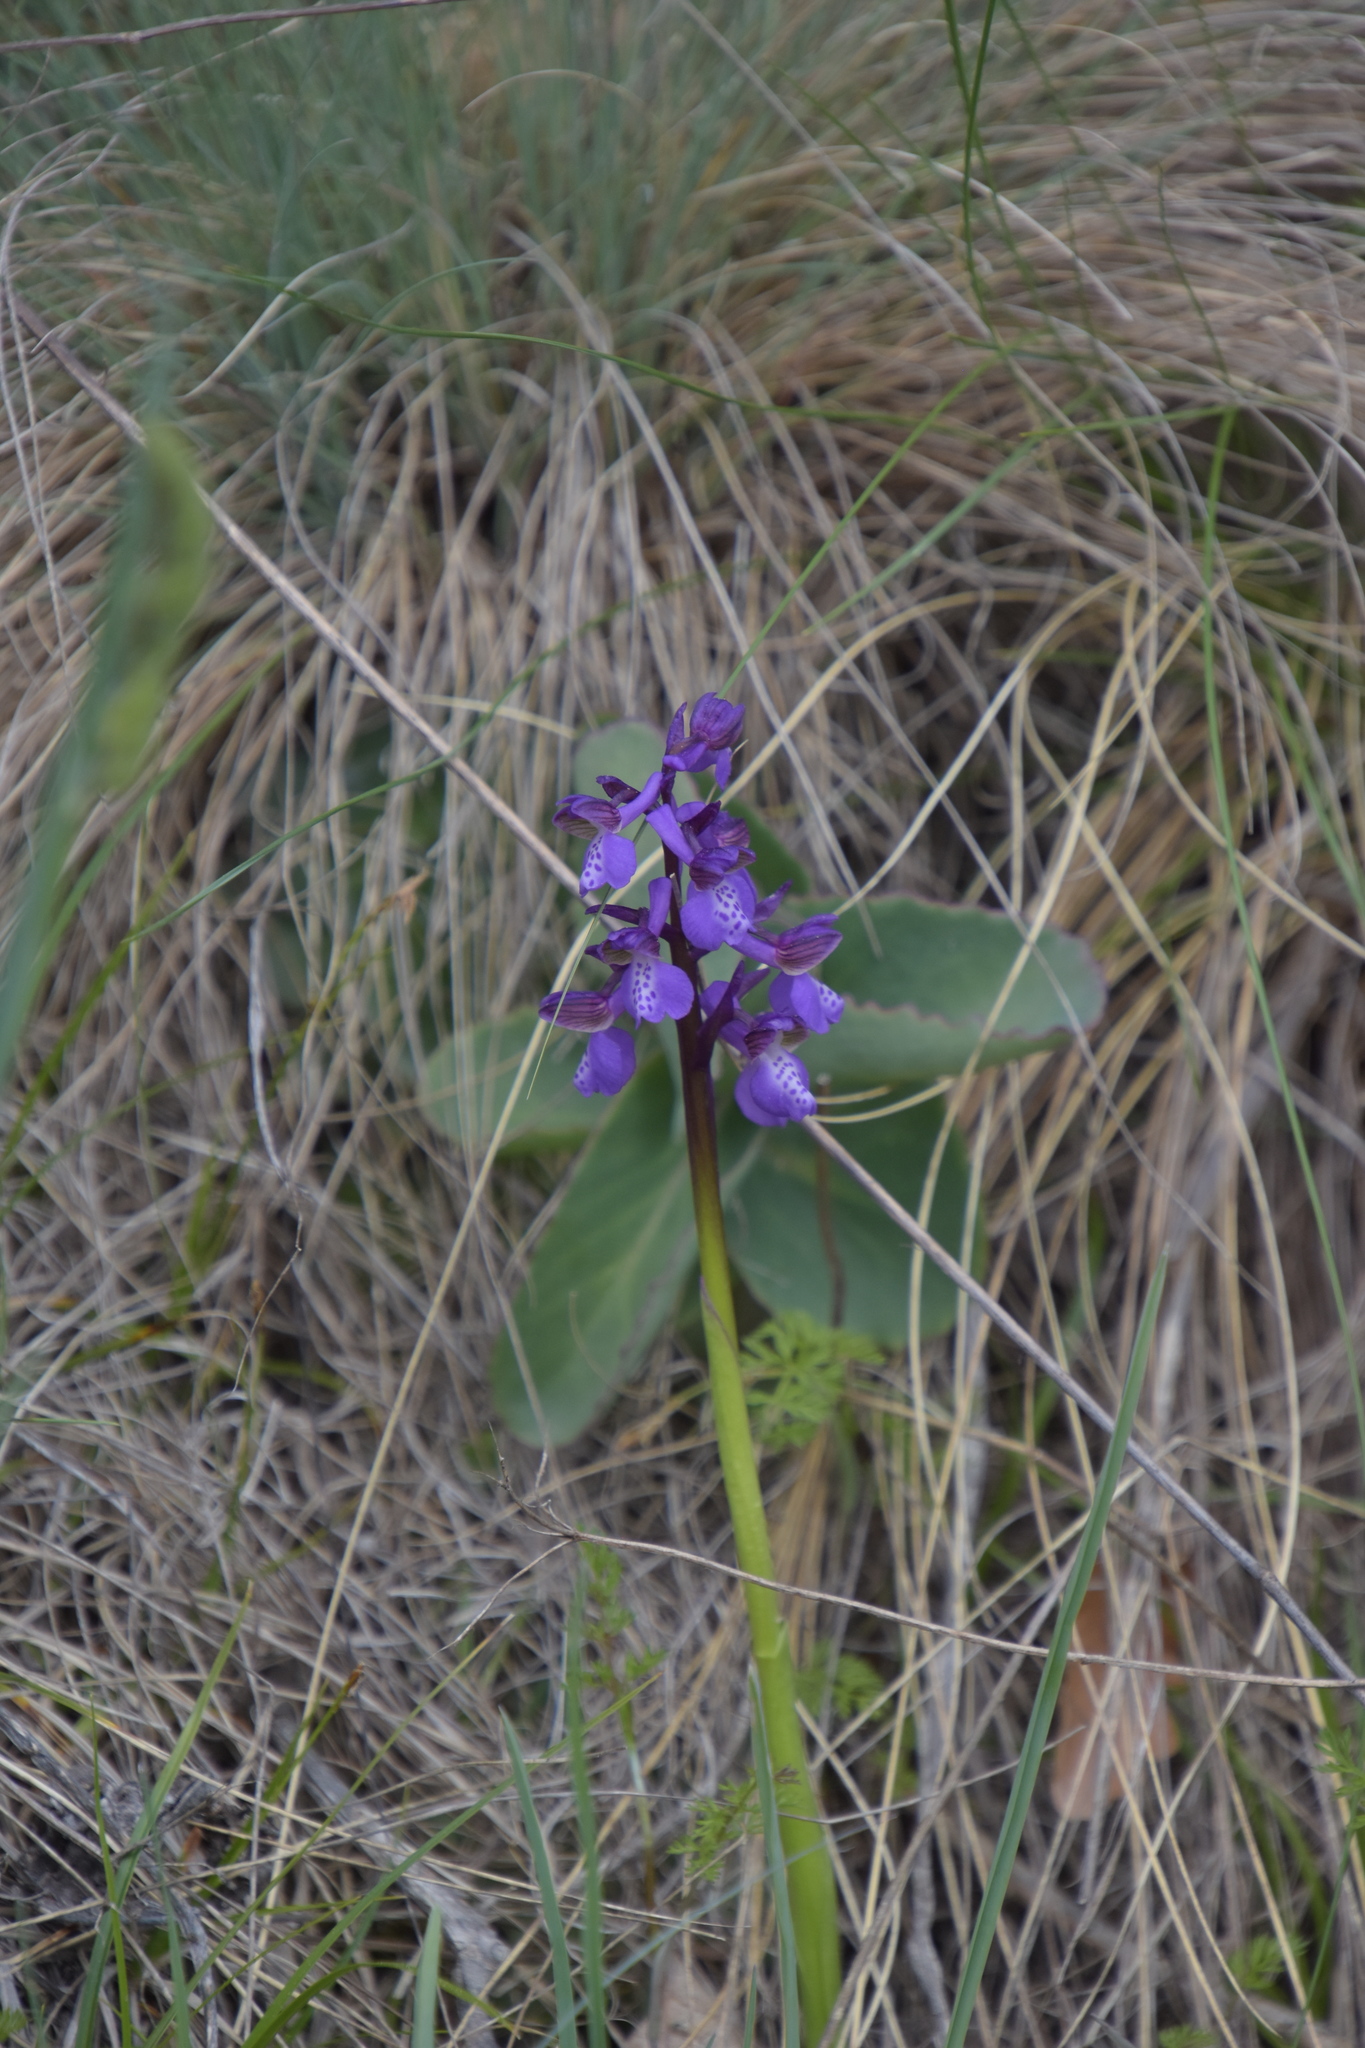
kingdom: Plantae
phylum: Tracheophyta
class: Liliopsida
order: Asparagales
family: Orchidaceae
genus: Anacamptis
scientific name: Anacamptis morio
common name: Green-winged orchid
